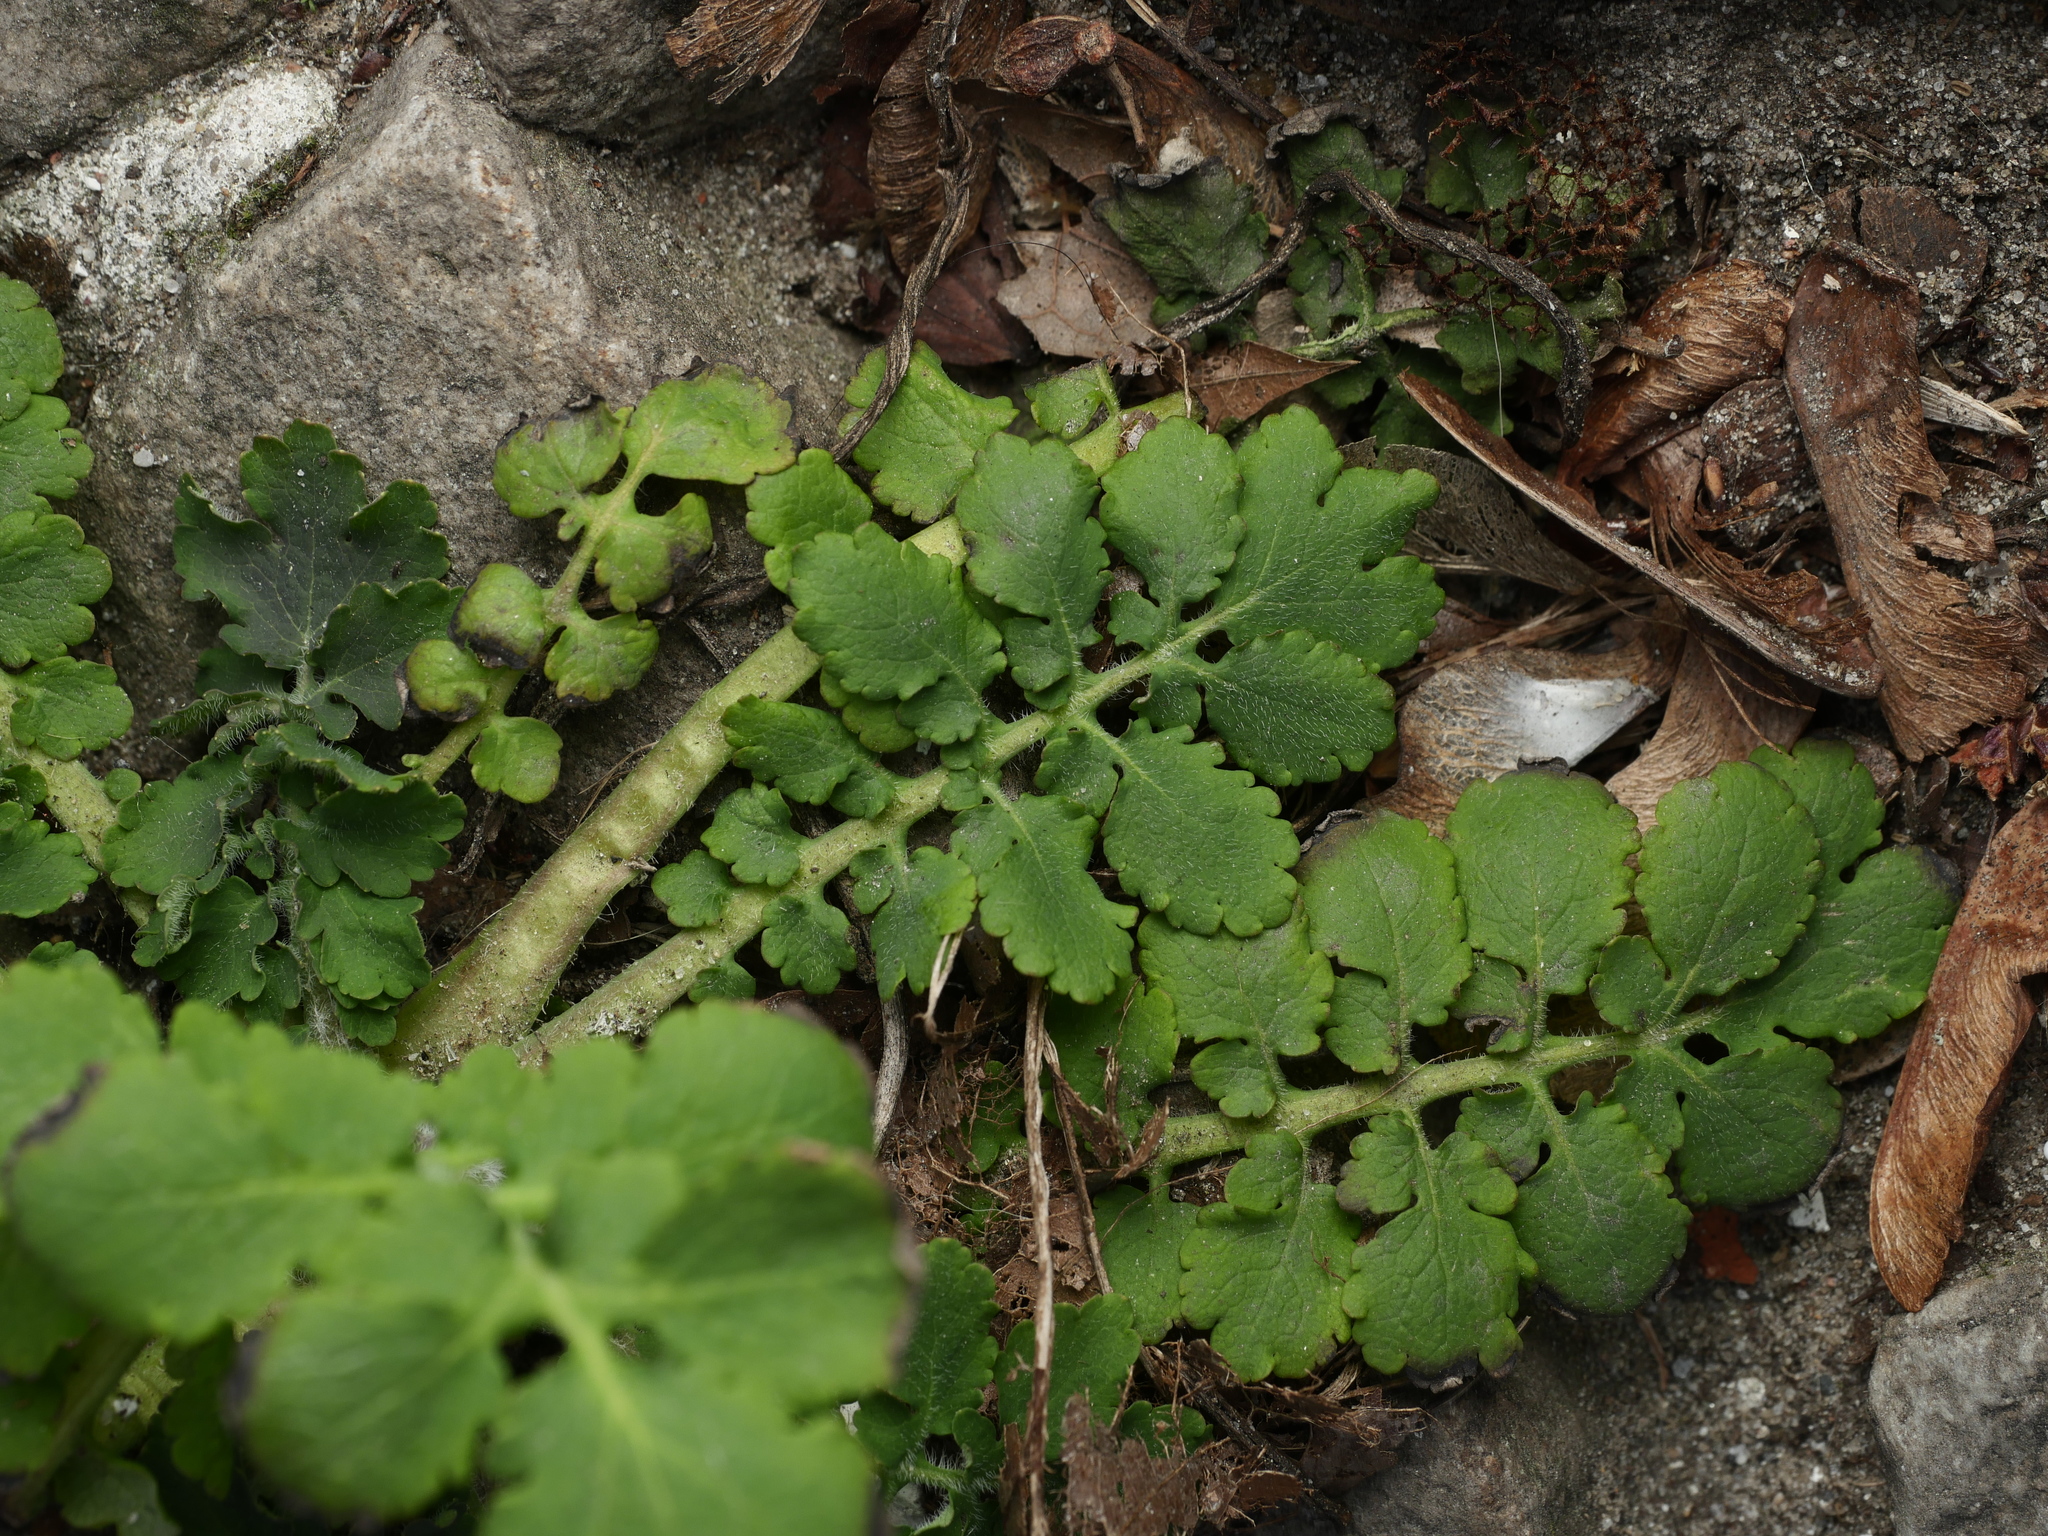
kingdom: Plantae
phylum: Tracheophyta
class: Magnoliopsida
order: Ranunculales
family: Papaveraceae
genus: Chelidonium
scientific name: Chelidonium majus
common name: Greater celandine
